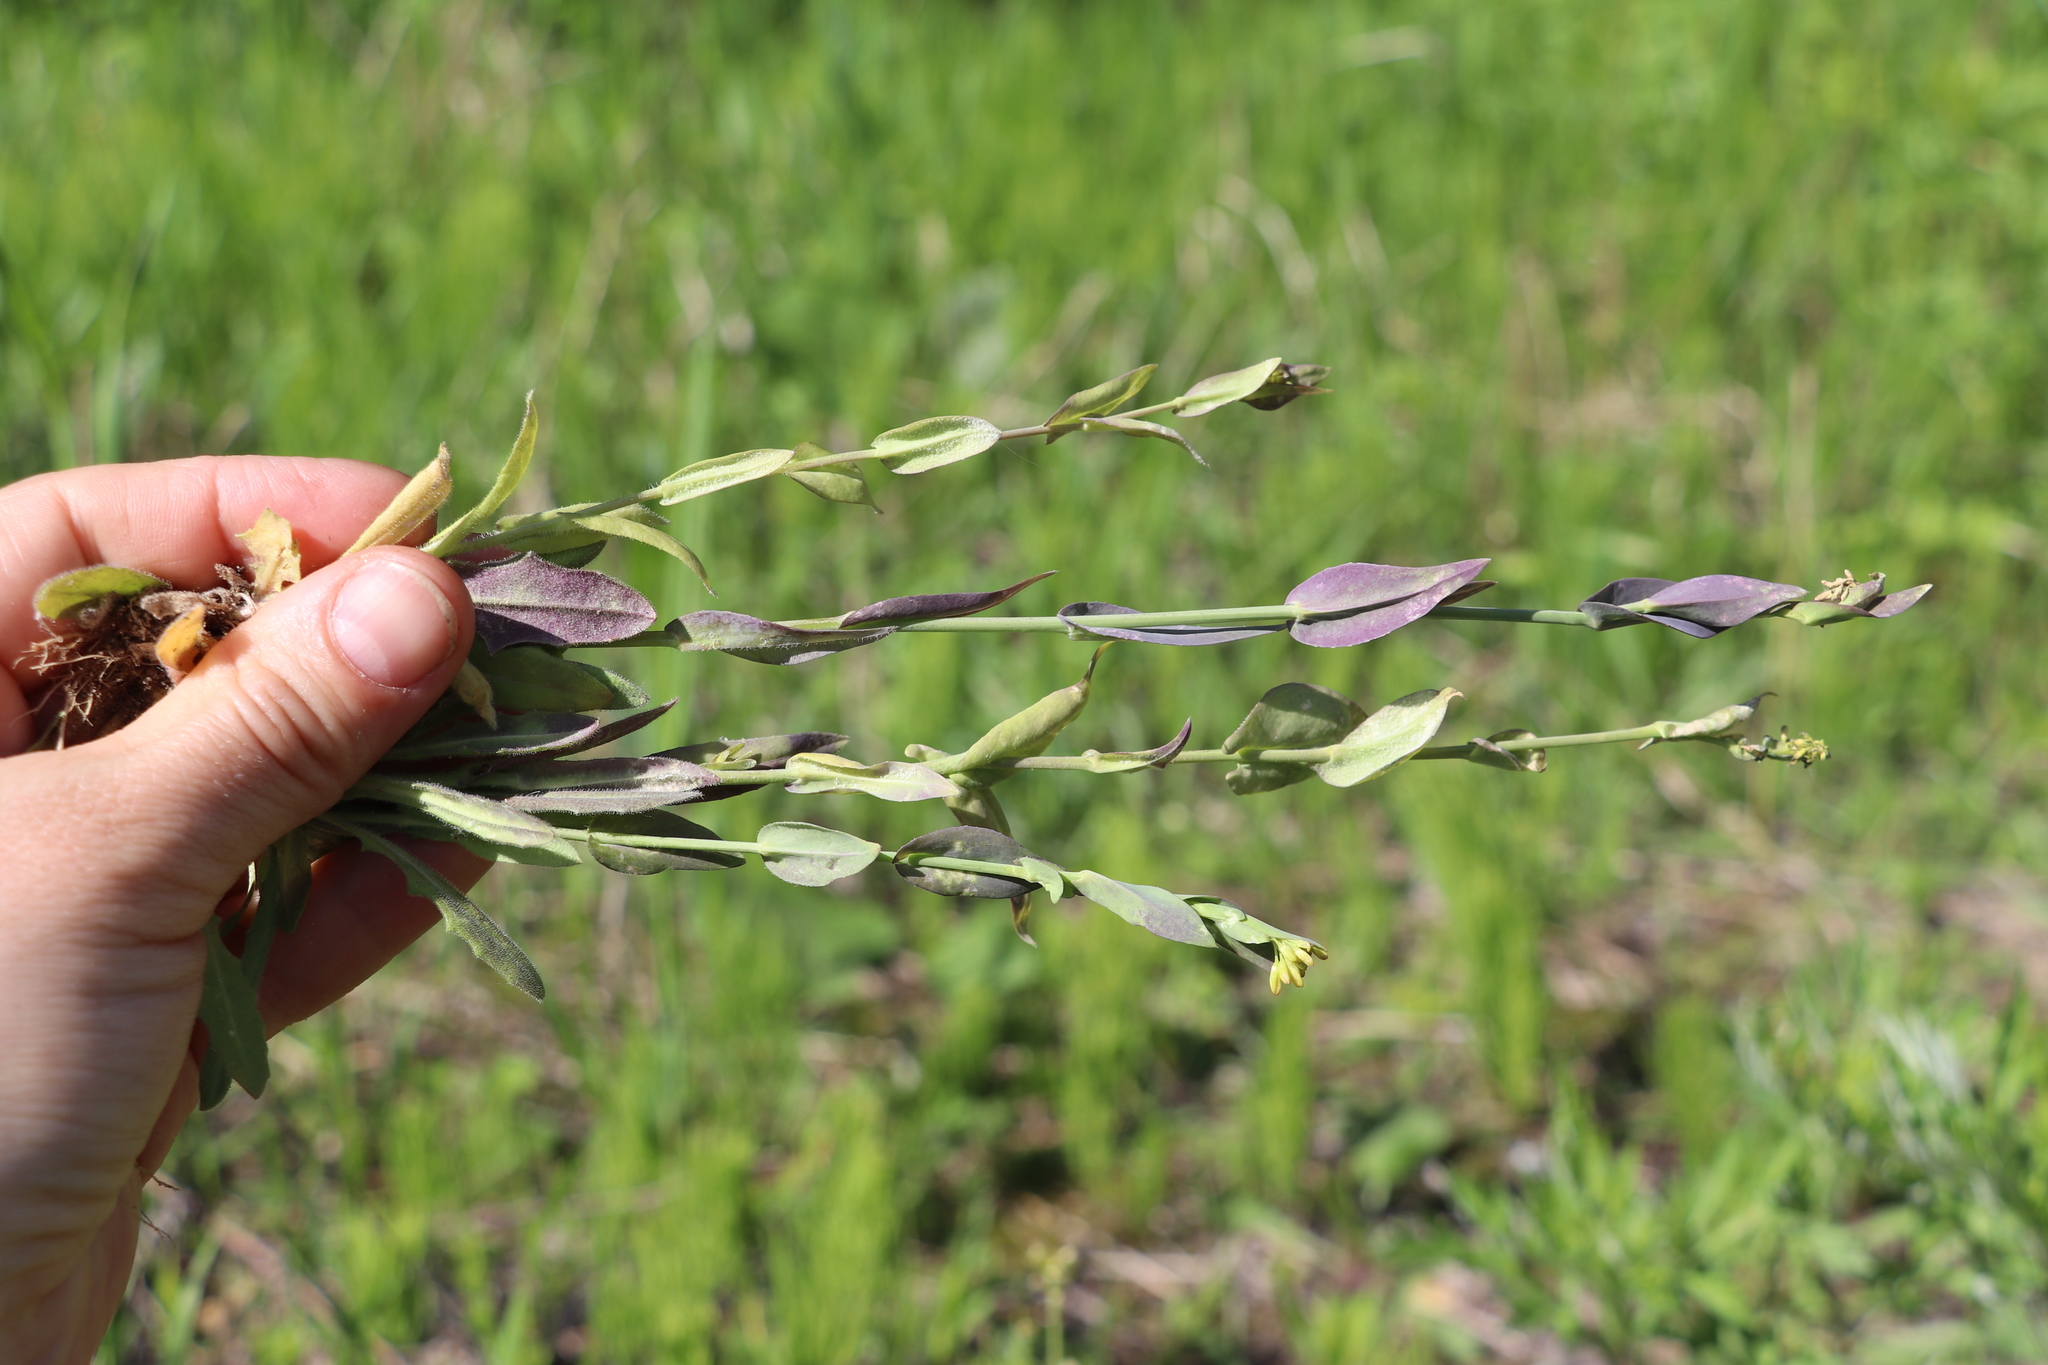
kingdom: Plantae
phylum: Tracheophyta
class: Magnoliopsida
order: Brassicales
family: Brassicaceae
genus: Turritis
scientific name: Turritis glabra
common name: Tower rockcress
